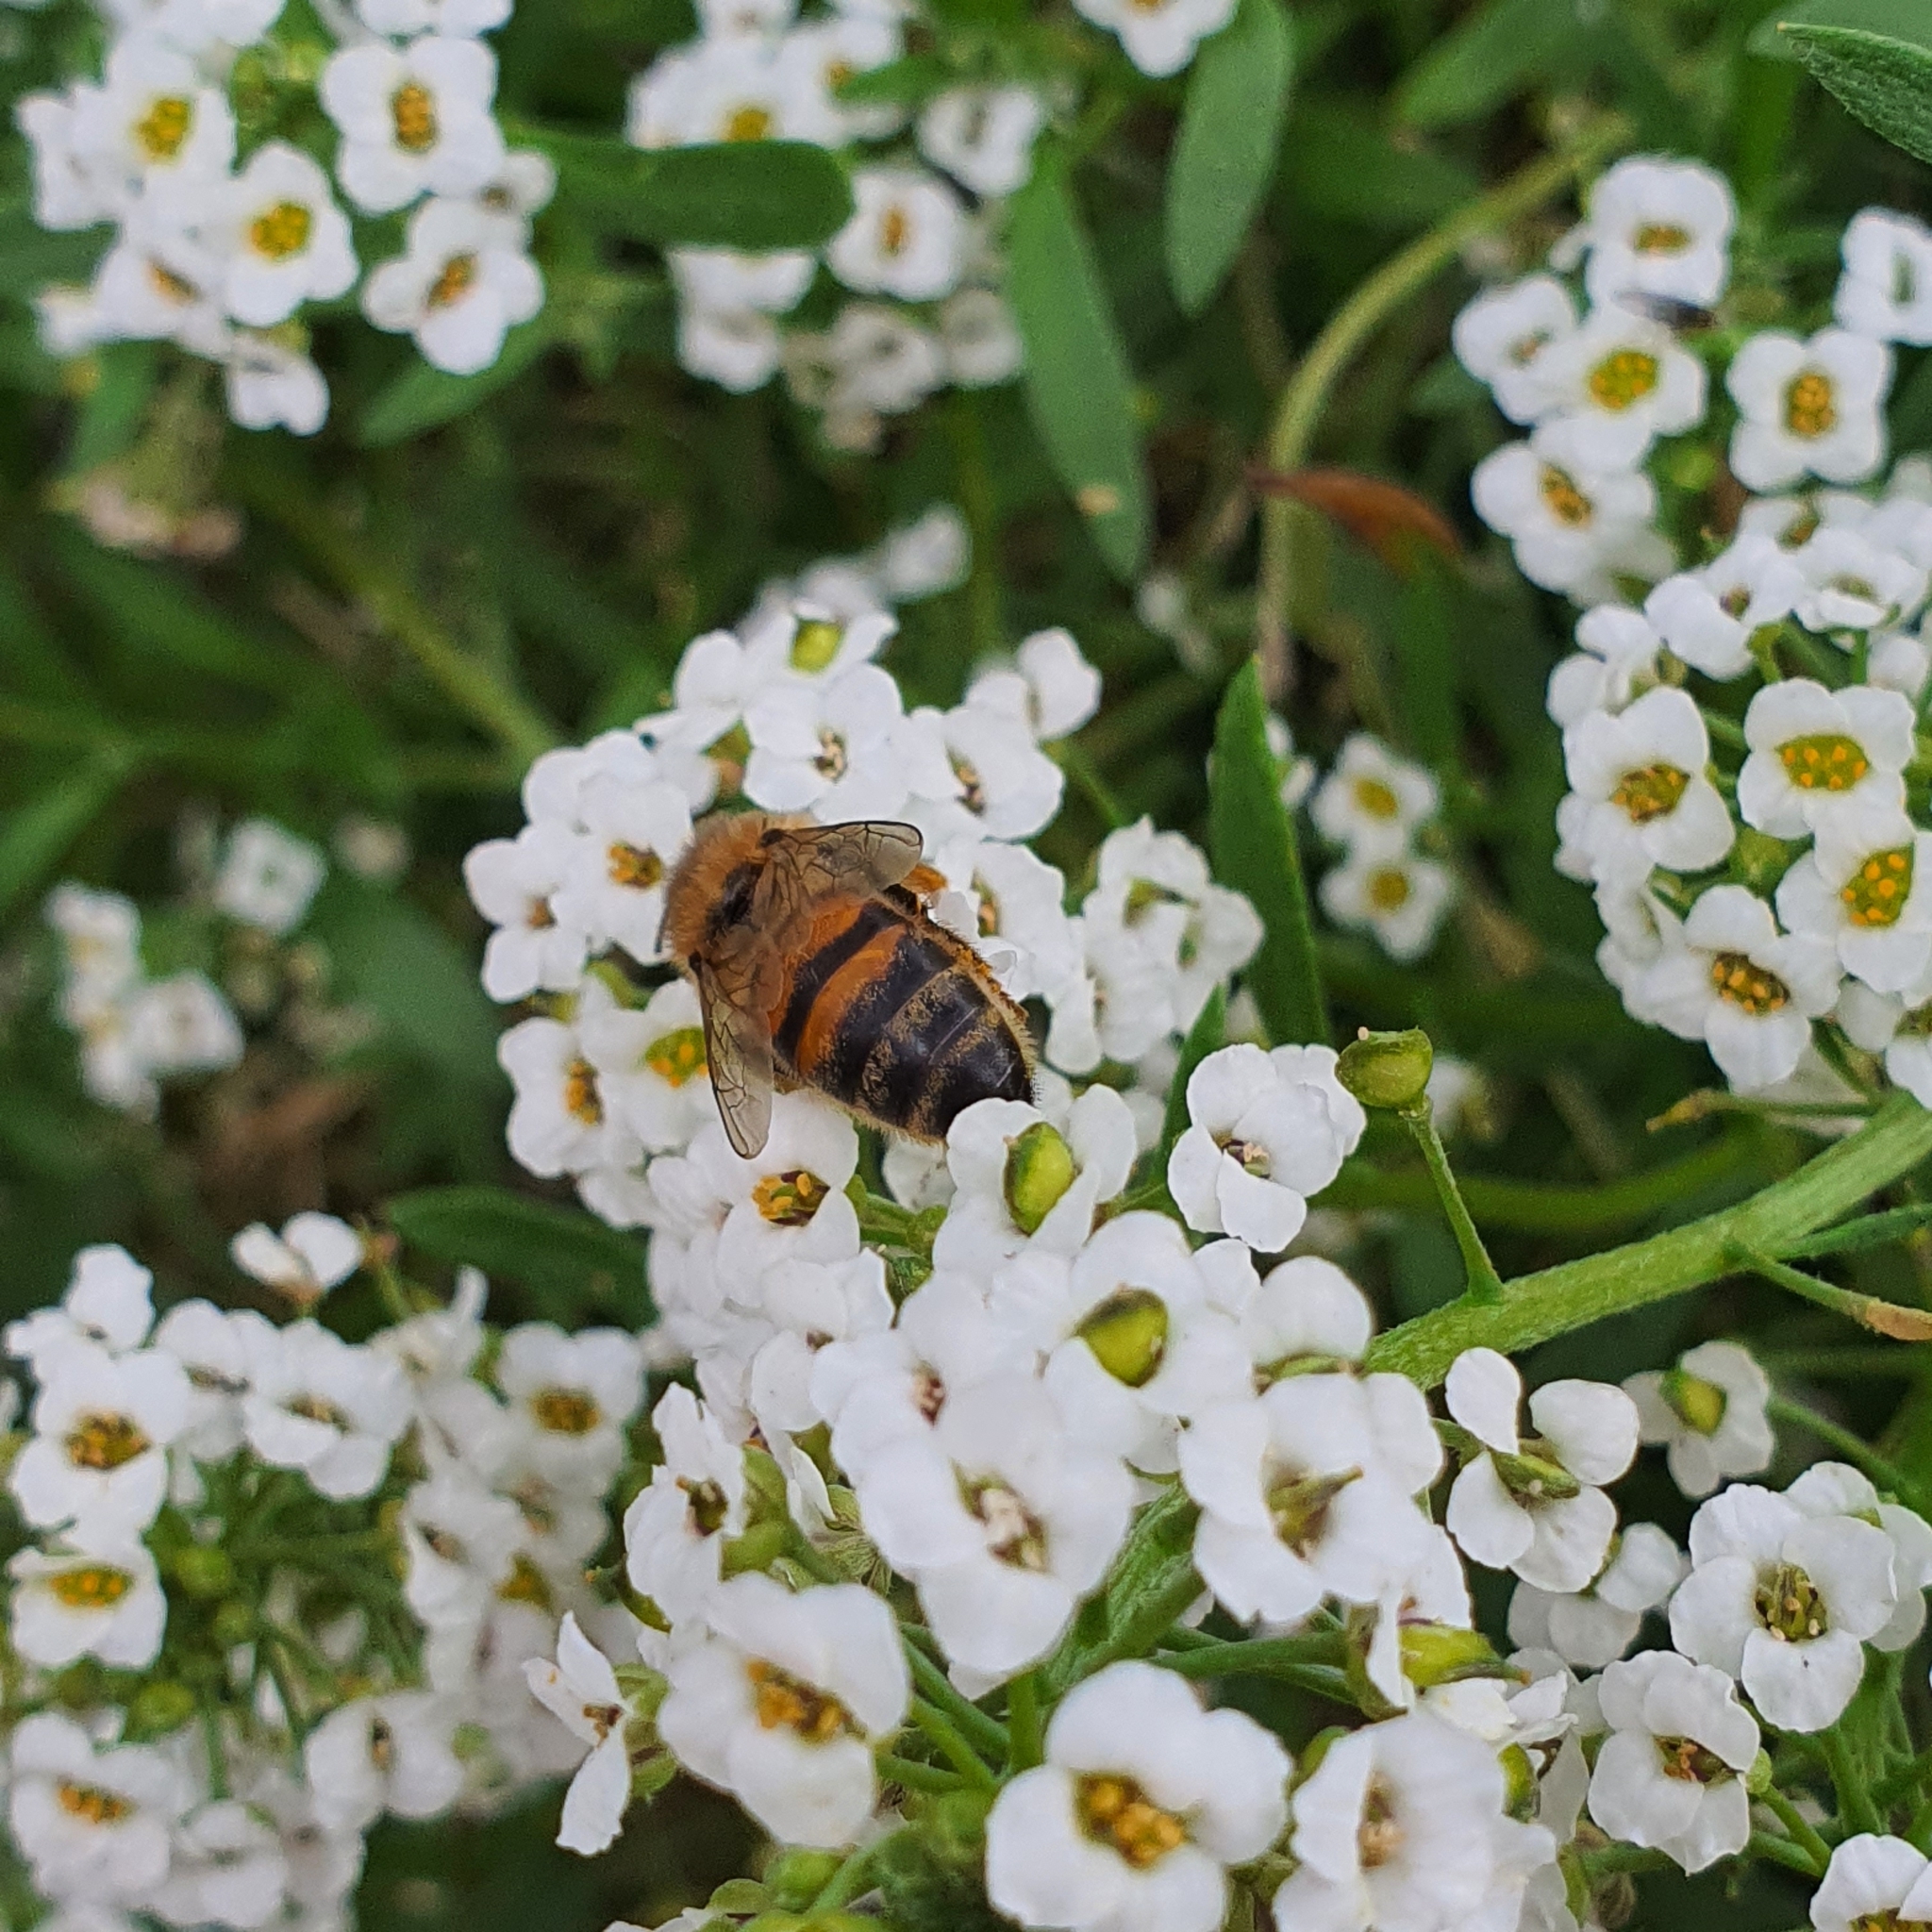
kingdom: Animalia
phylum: Arthropoda
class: Insecta
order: Hymenoptera
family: Apidae
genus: Apis
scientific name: Apis mellifera
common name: Honey bee
